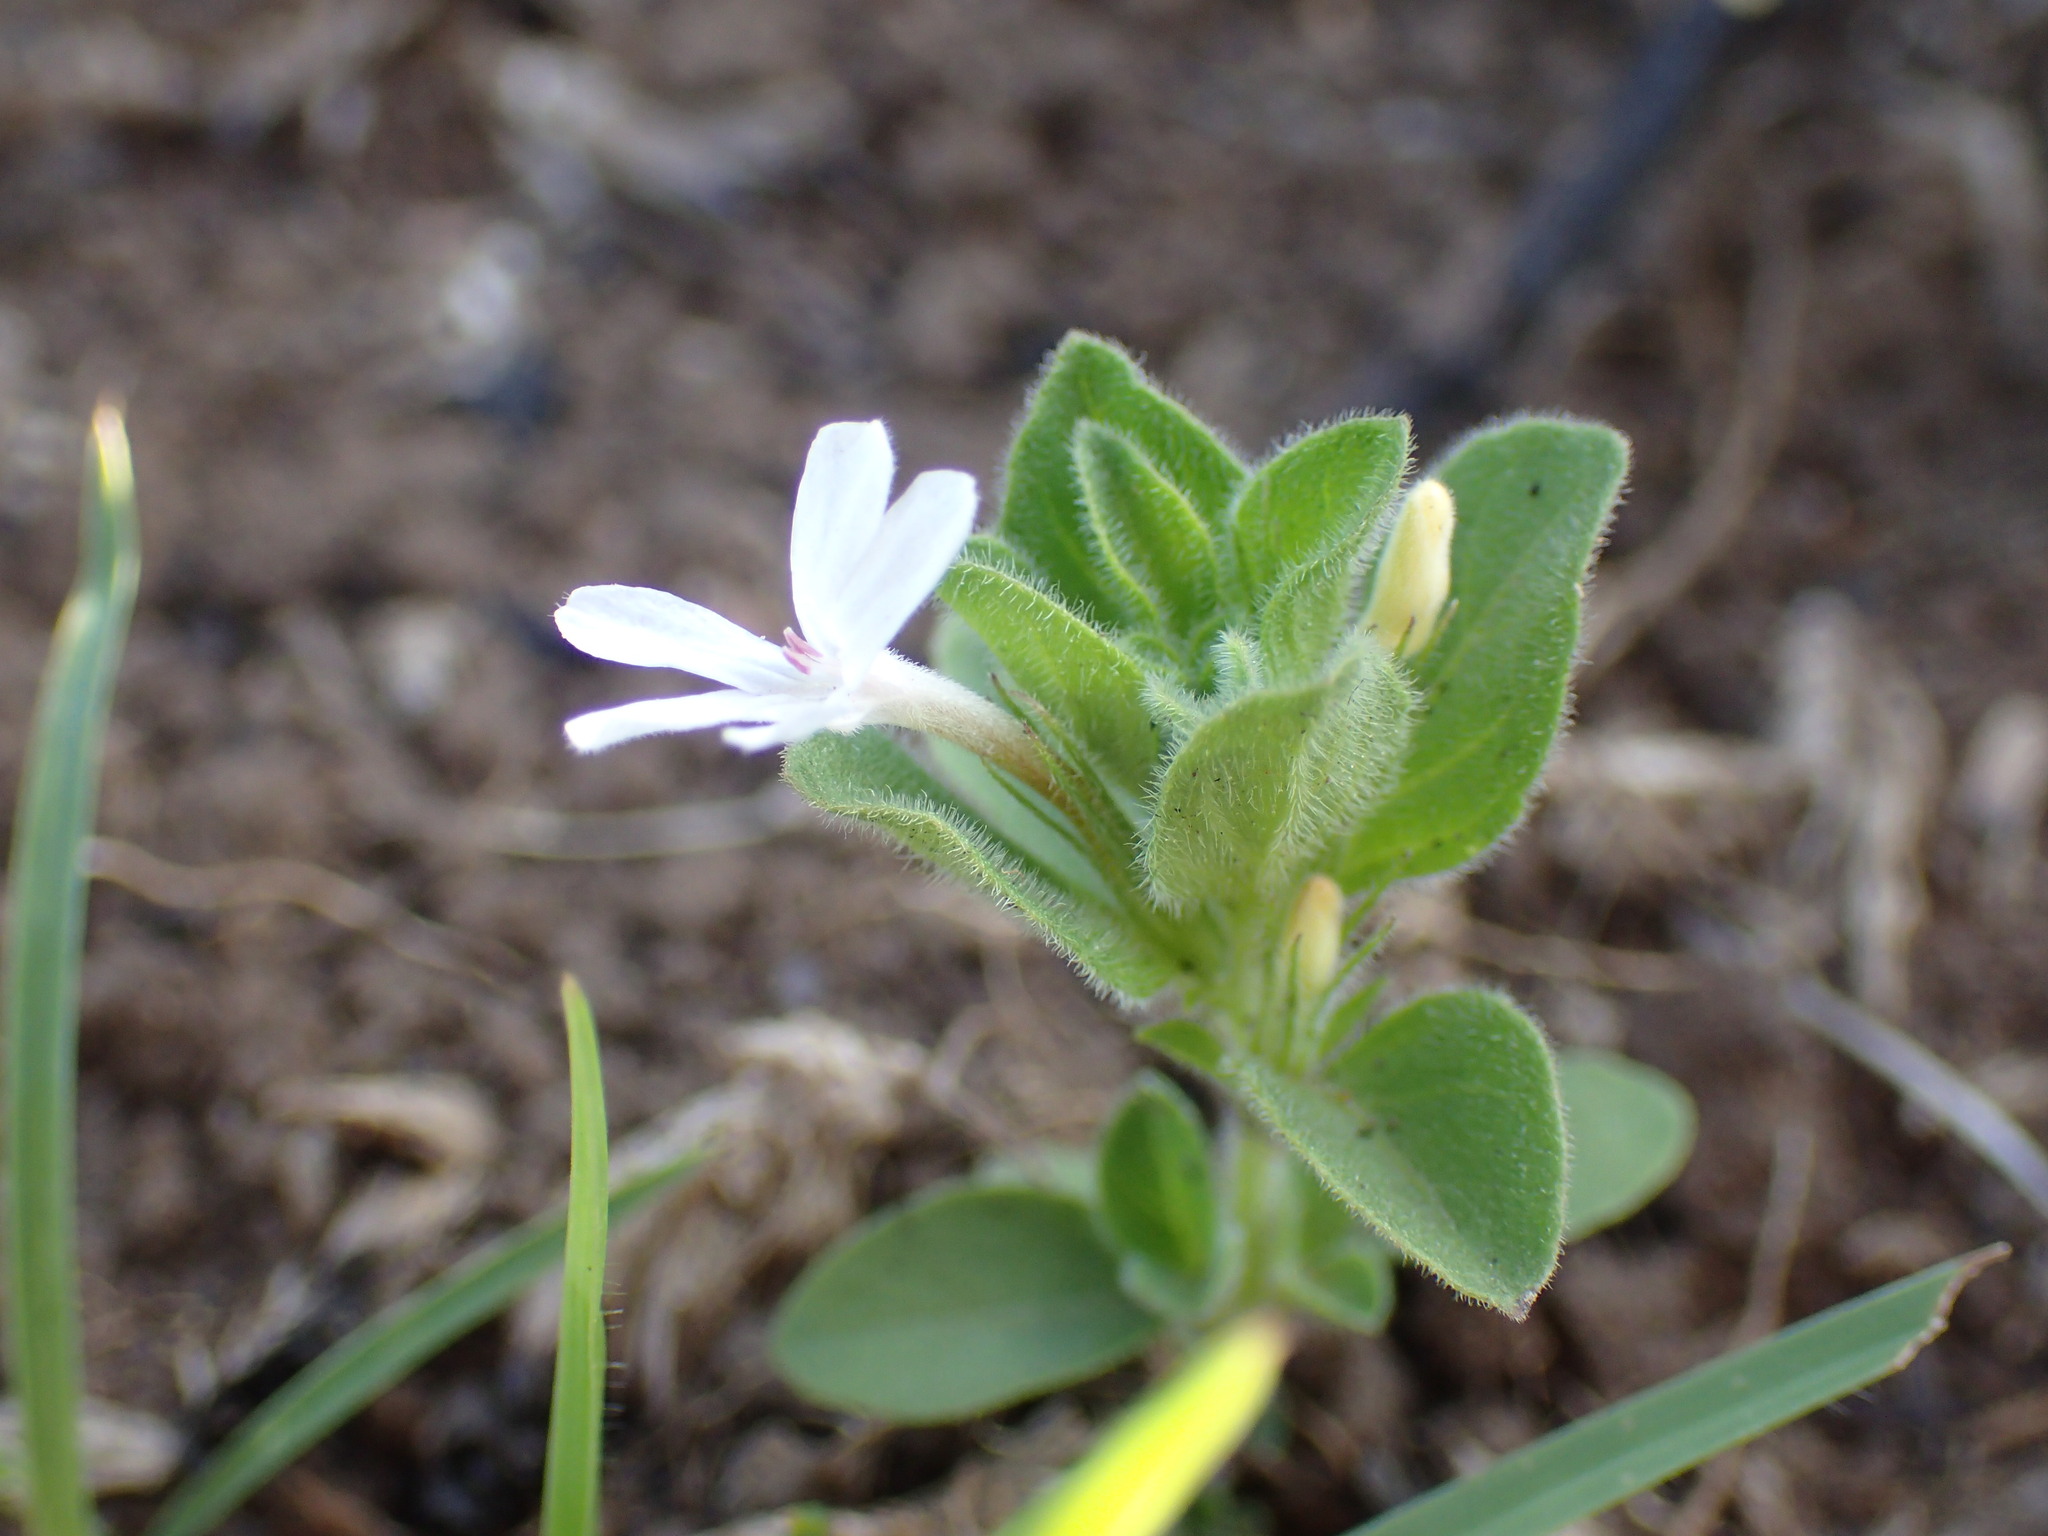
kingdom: Plantae
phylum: Tracheophyta
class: Magnoliopsida
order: Lamiales
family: Acanthaceae
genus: Dyschoriste
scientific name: Dyschoriste setigera
